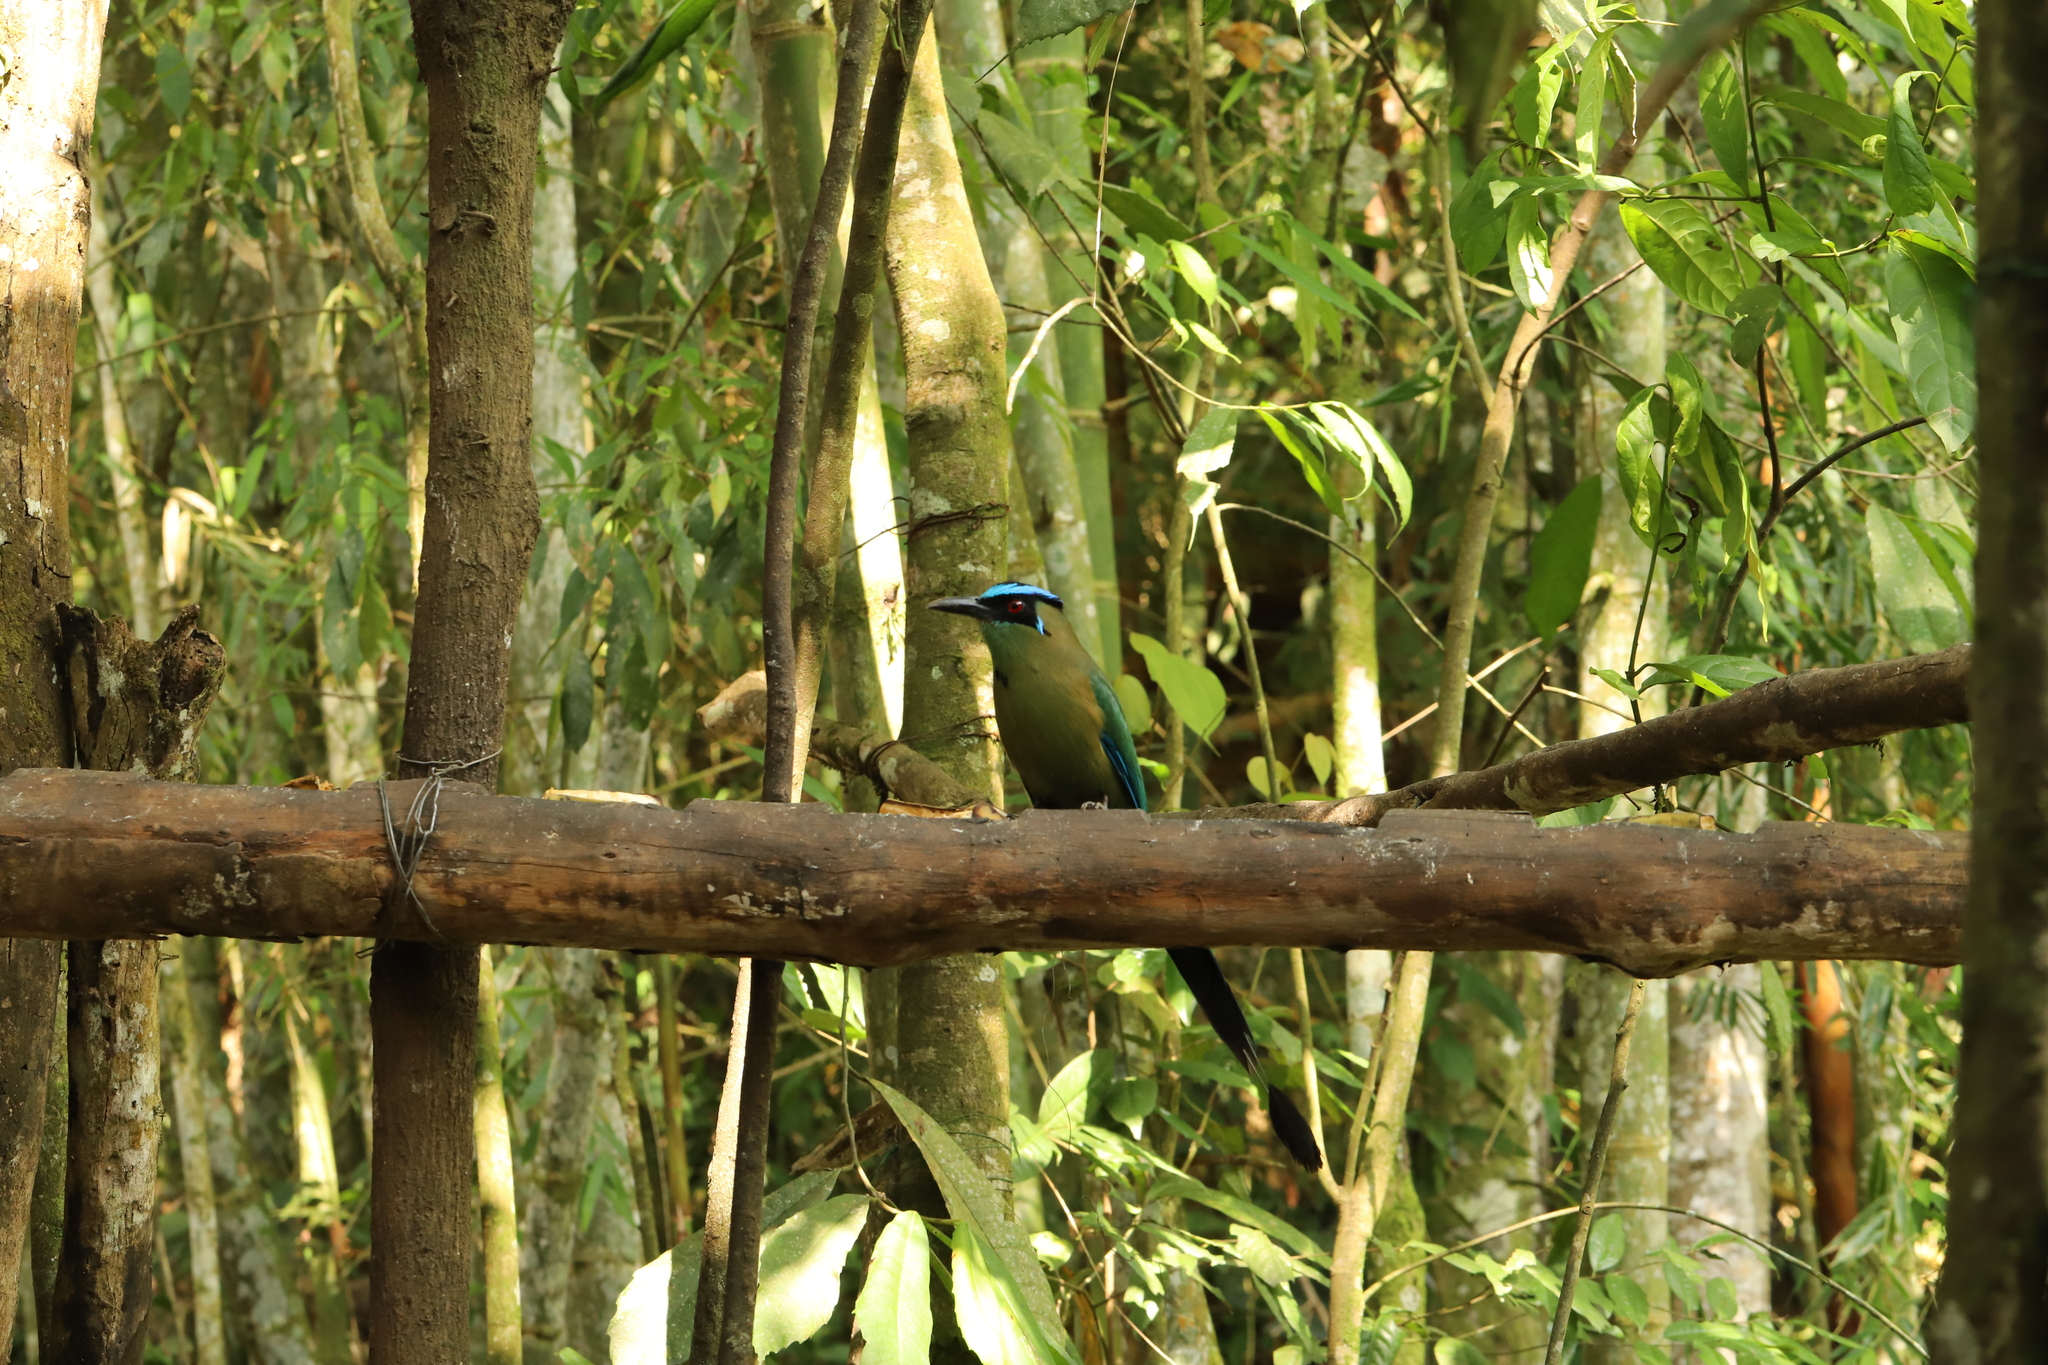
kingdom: Animalia
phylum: Chordata
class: Aves
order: Coraciiformes
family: Momotidae
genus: Momotus
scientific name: Momotus aequatorialis
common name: Andean motmot
